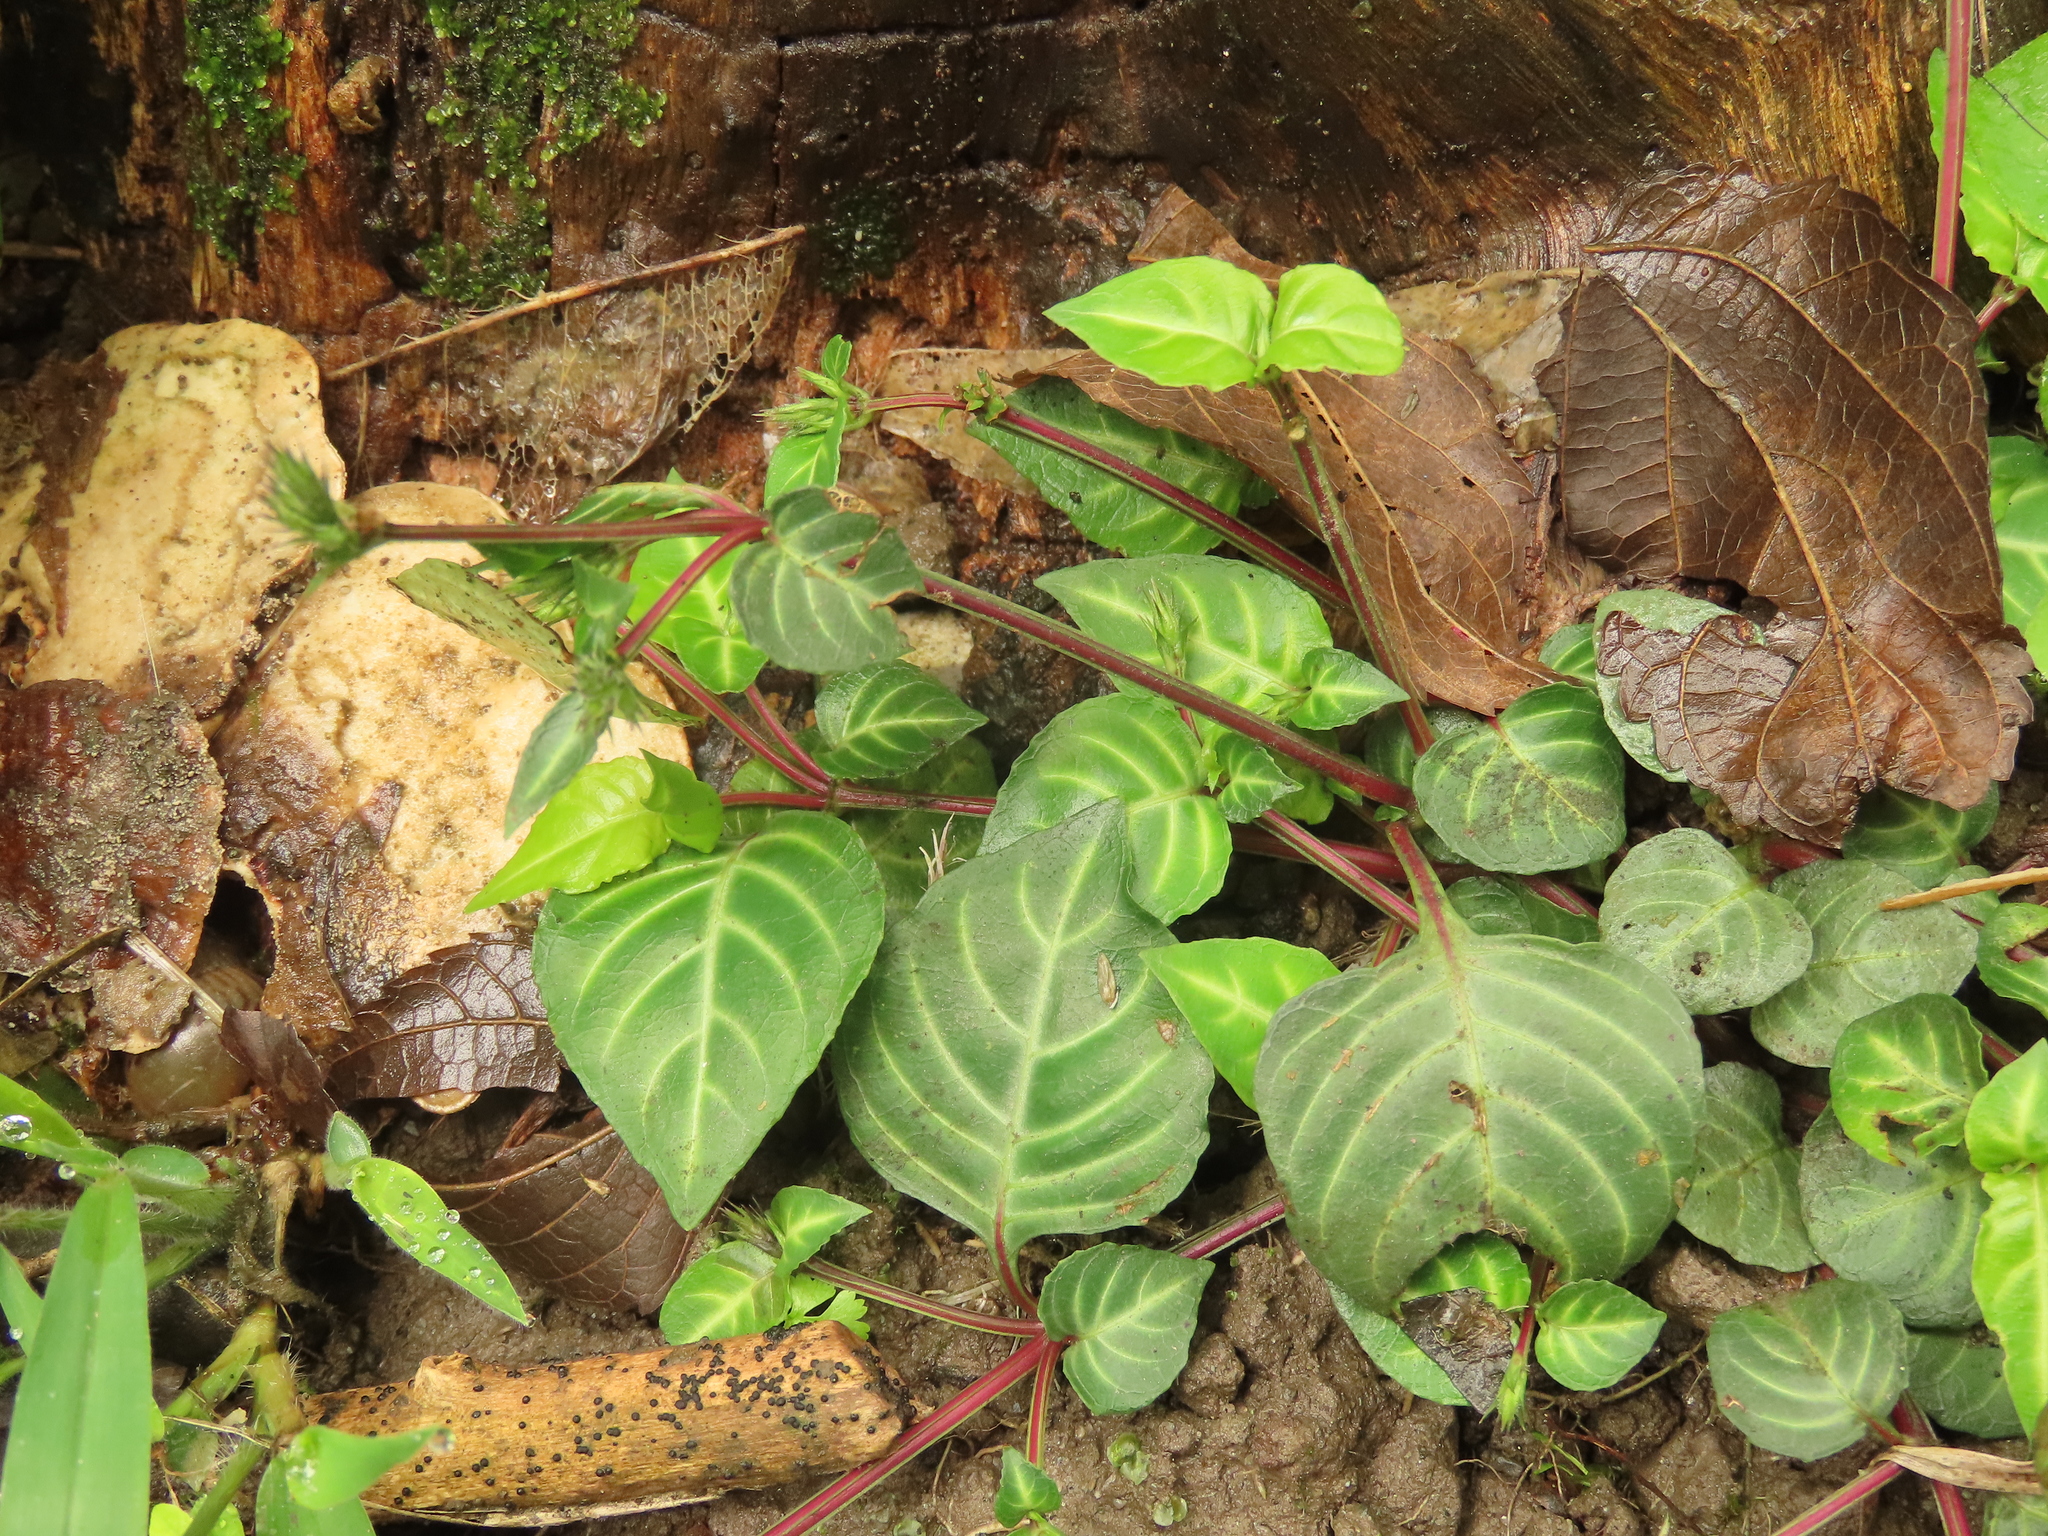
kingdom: Plantae
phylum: Tracheophyta
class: Magnoliopsida
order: Lamiales
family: Acanthaceae
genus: Lepidagathis
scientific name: Lepidagathis inaequalis
